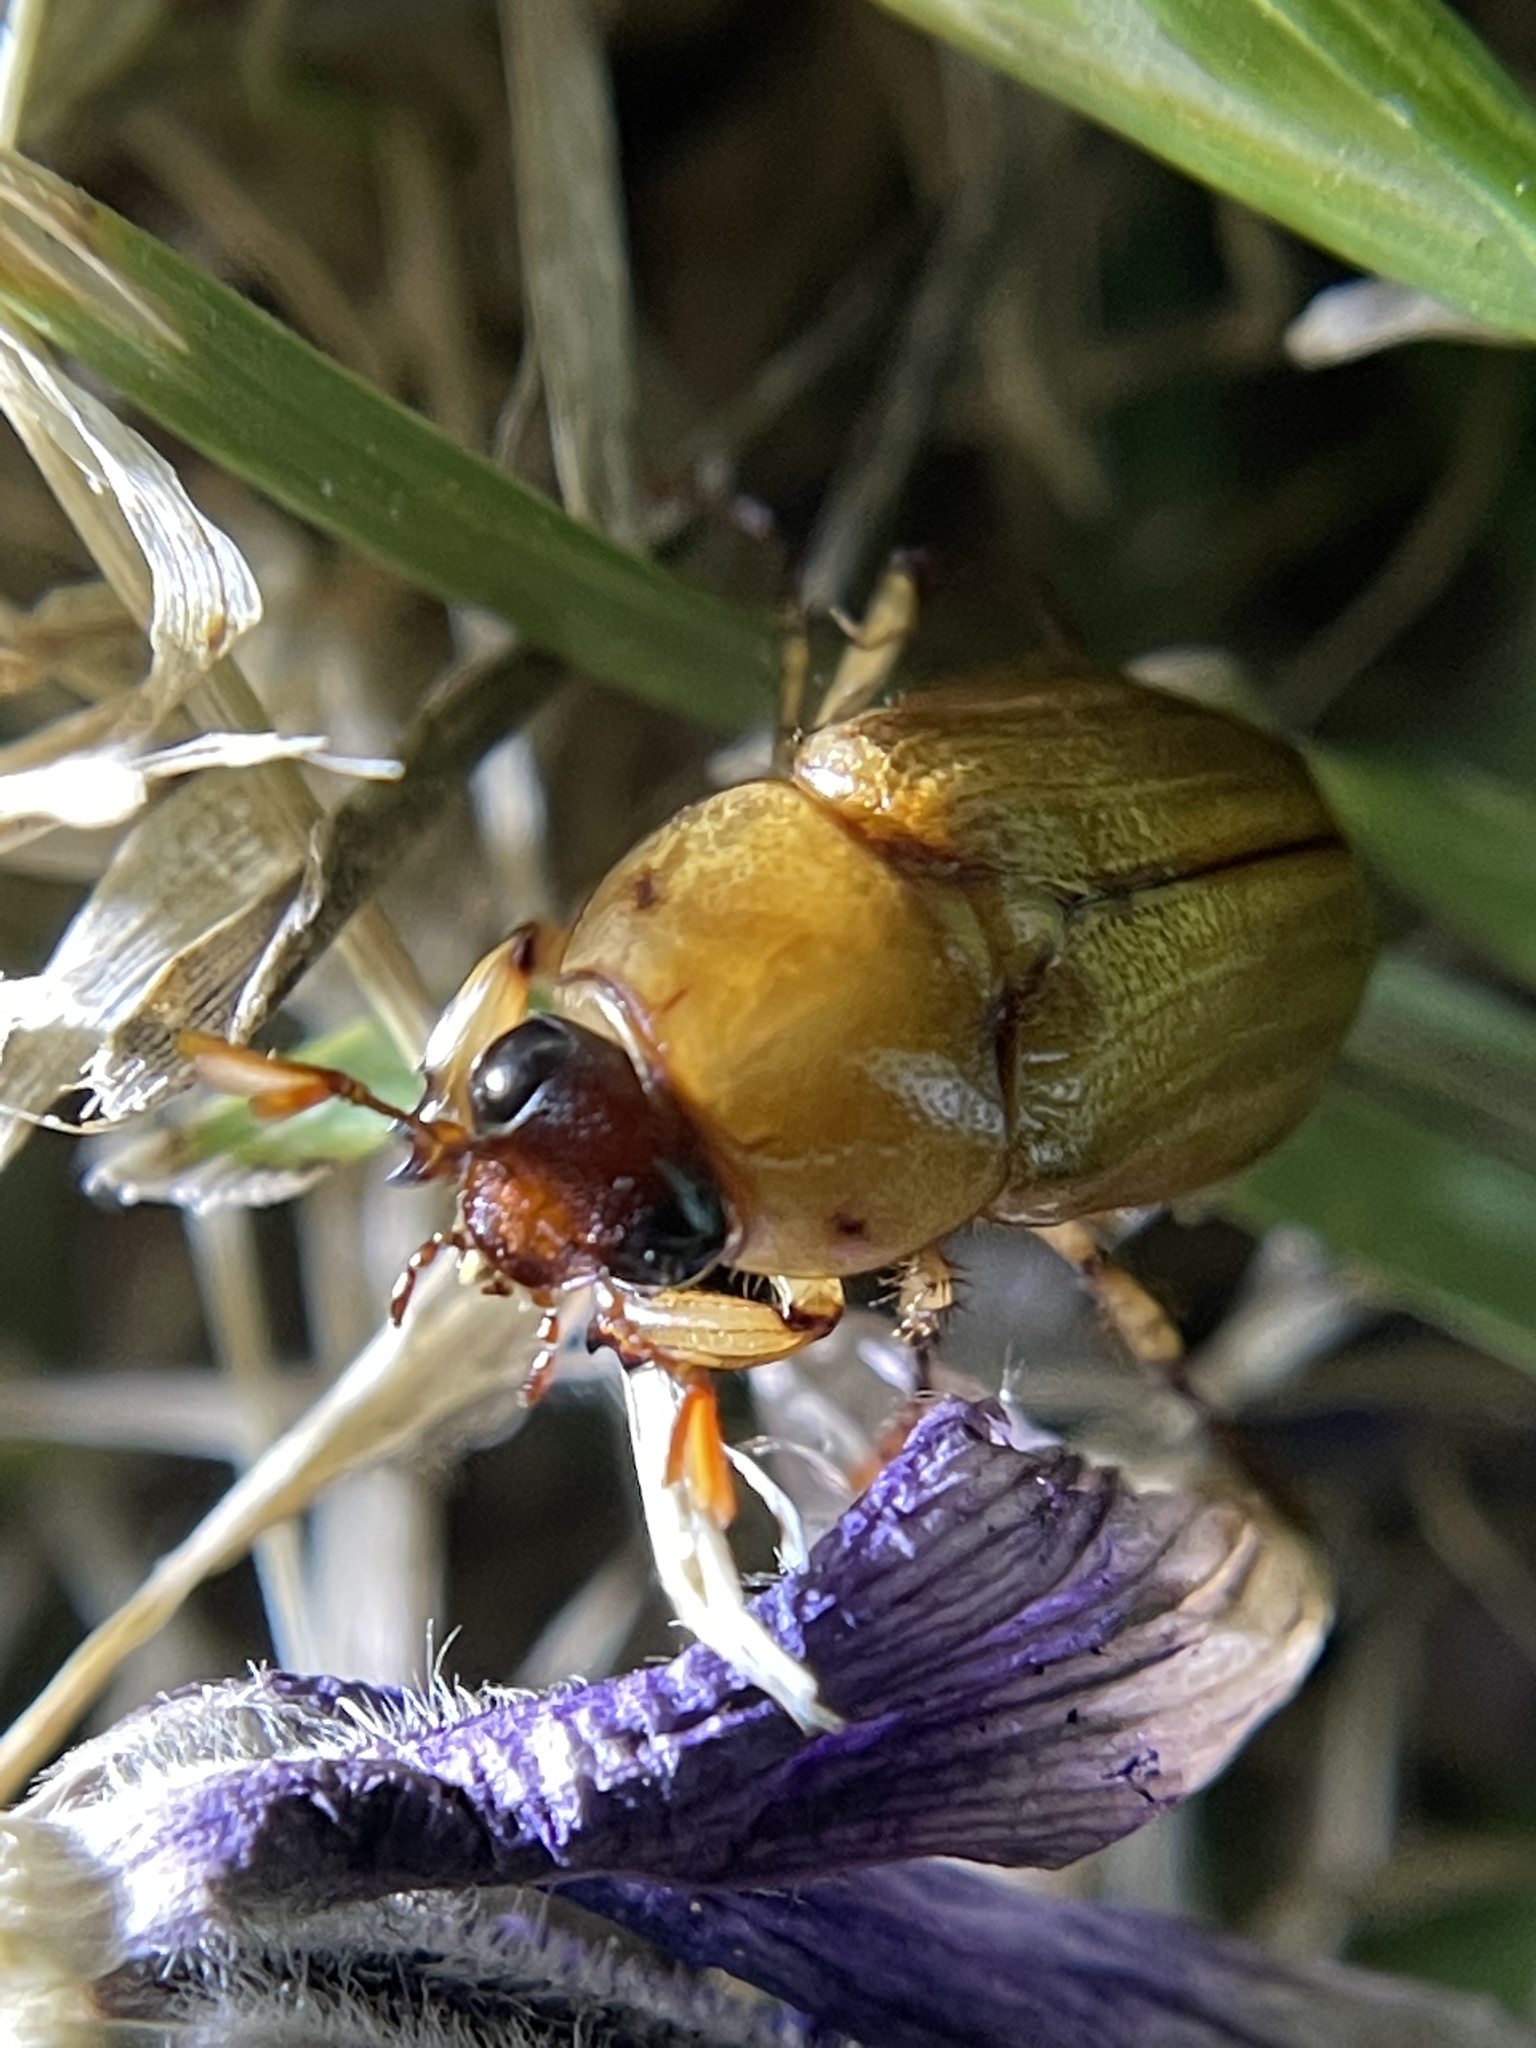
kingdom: Animalia
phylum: Arthropoda
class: Insecta
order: Coleoptera
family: Scarabaeidae
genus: Cyclocephala
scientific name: Cyclocephala lurida
